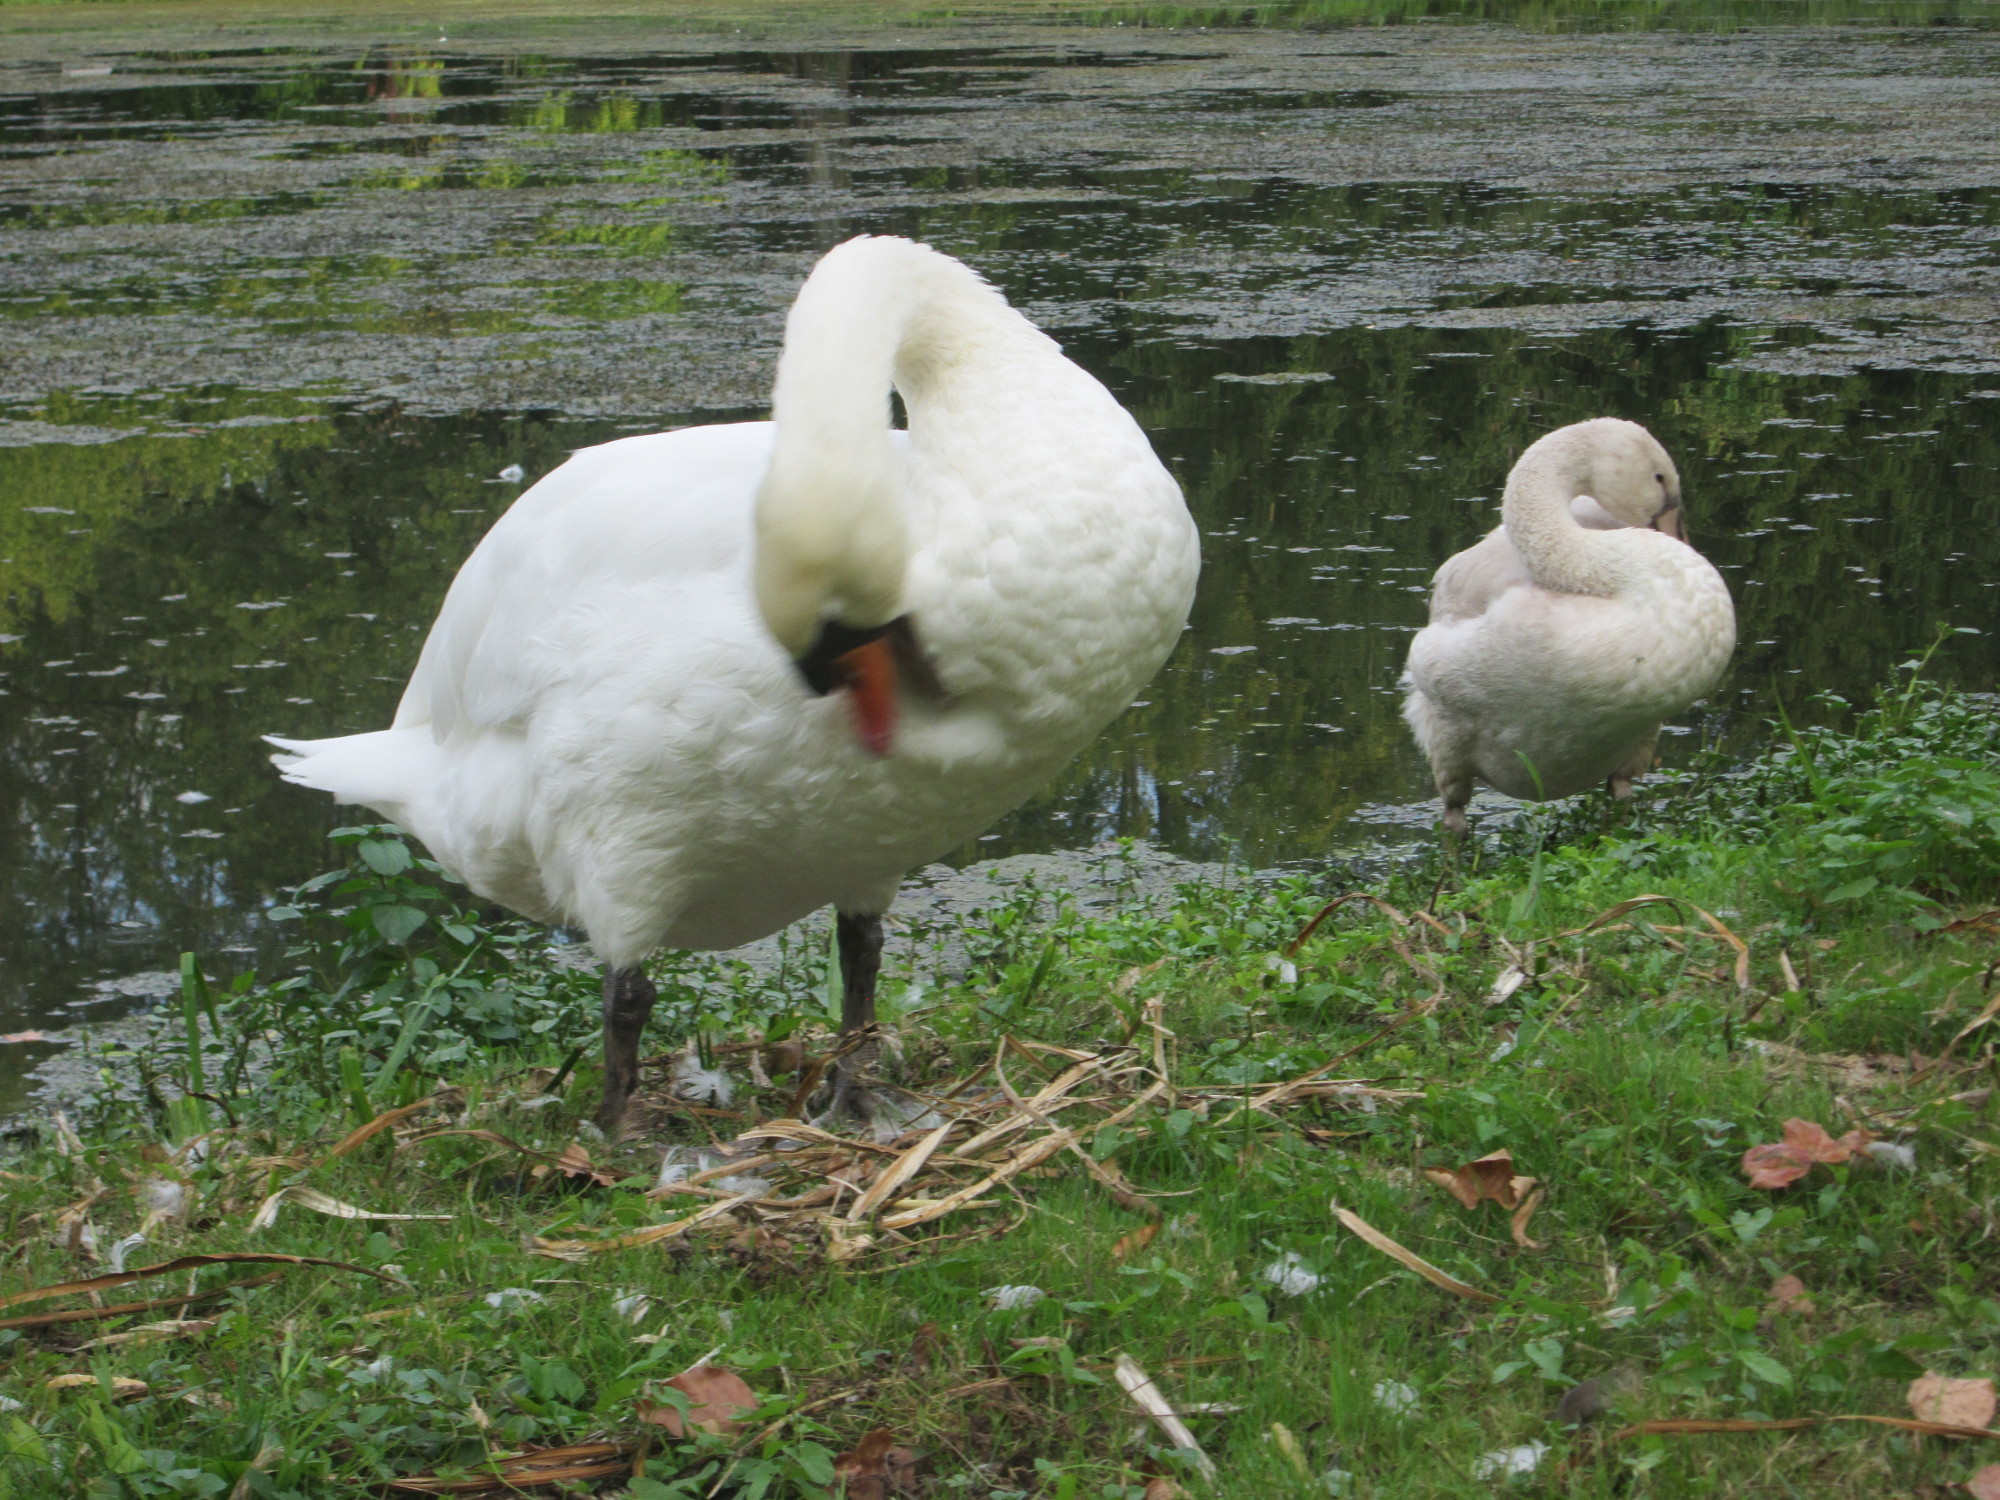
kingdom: Animalia
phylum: Chordata
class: Aves
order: Anseriformes
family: Anatidae
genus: Cygnus
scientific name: Cygnus olor
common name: Mute swan
